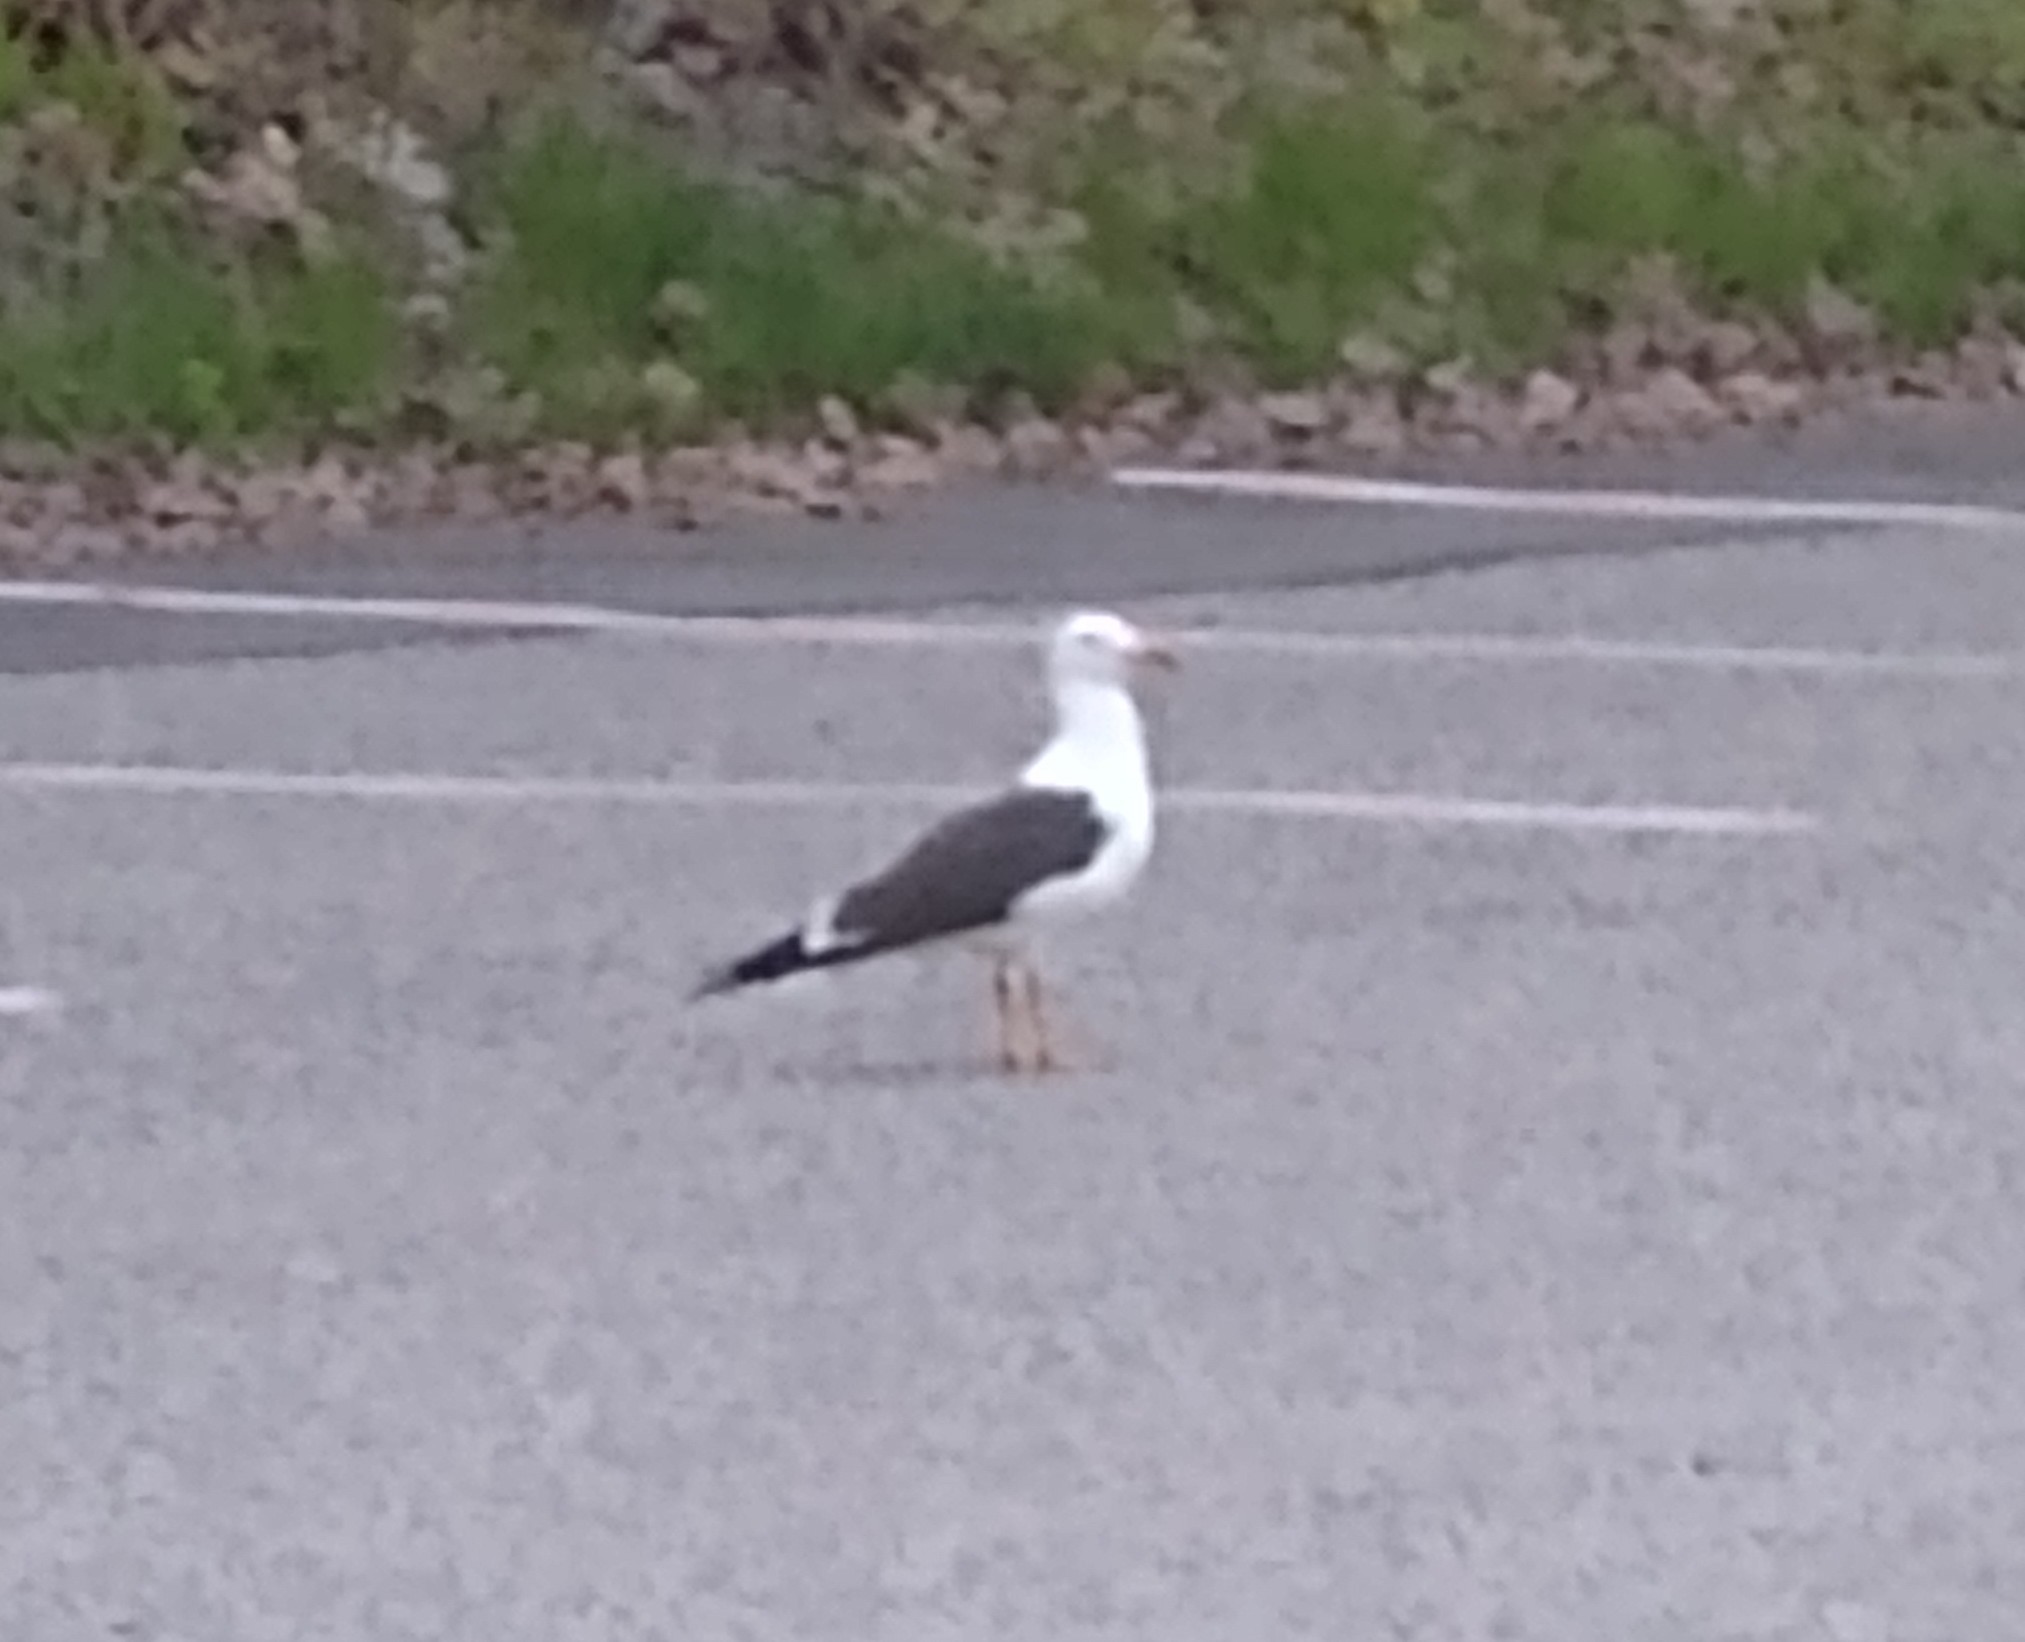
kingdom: Animalia
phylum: Chordata
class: Aves
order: Charadriiformes
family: Laridae
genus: Larus
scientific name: Larus fuscus
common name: Lesser black-backed gull
